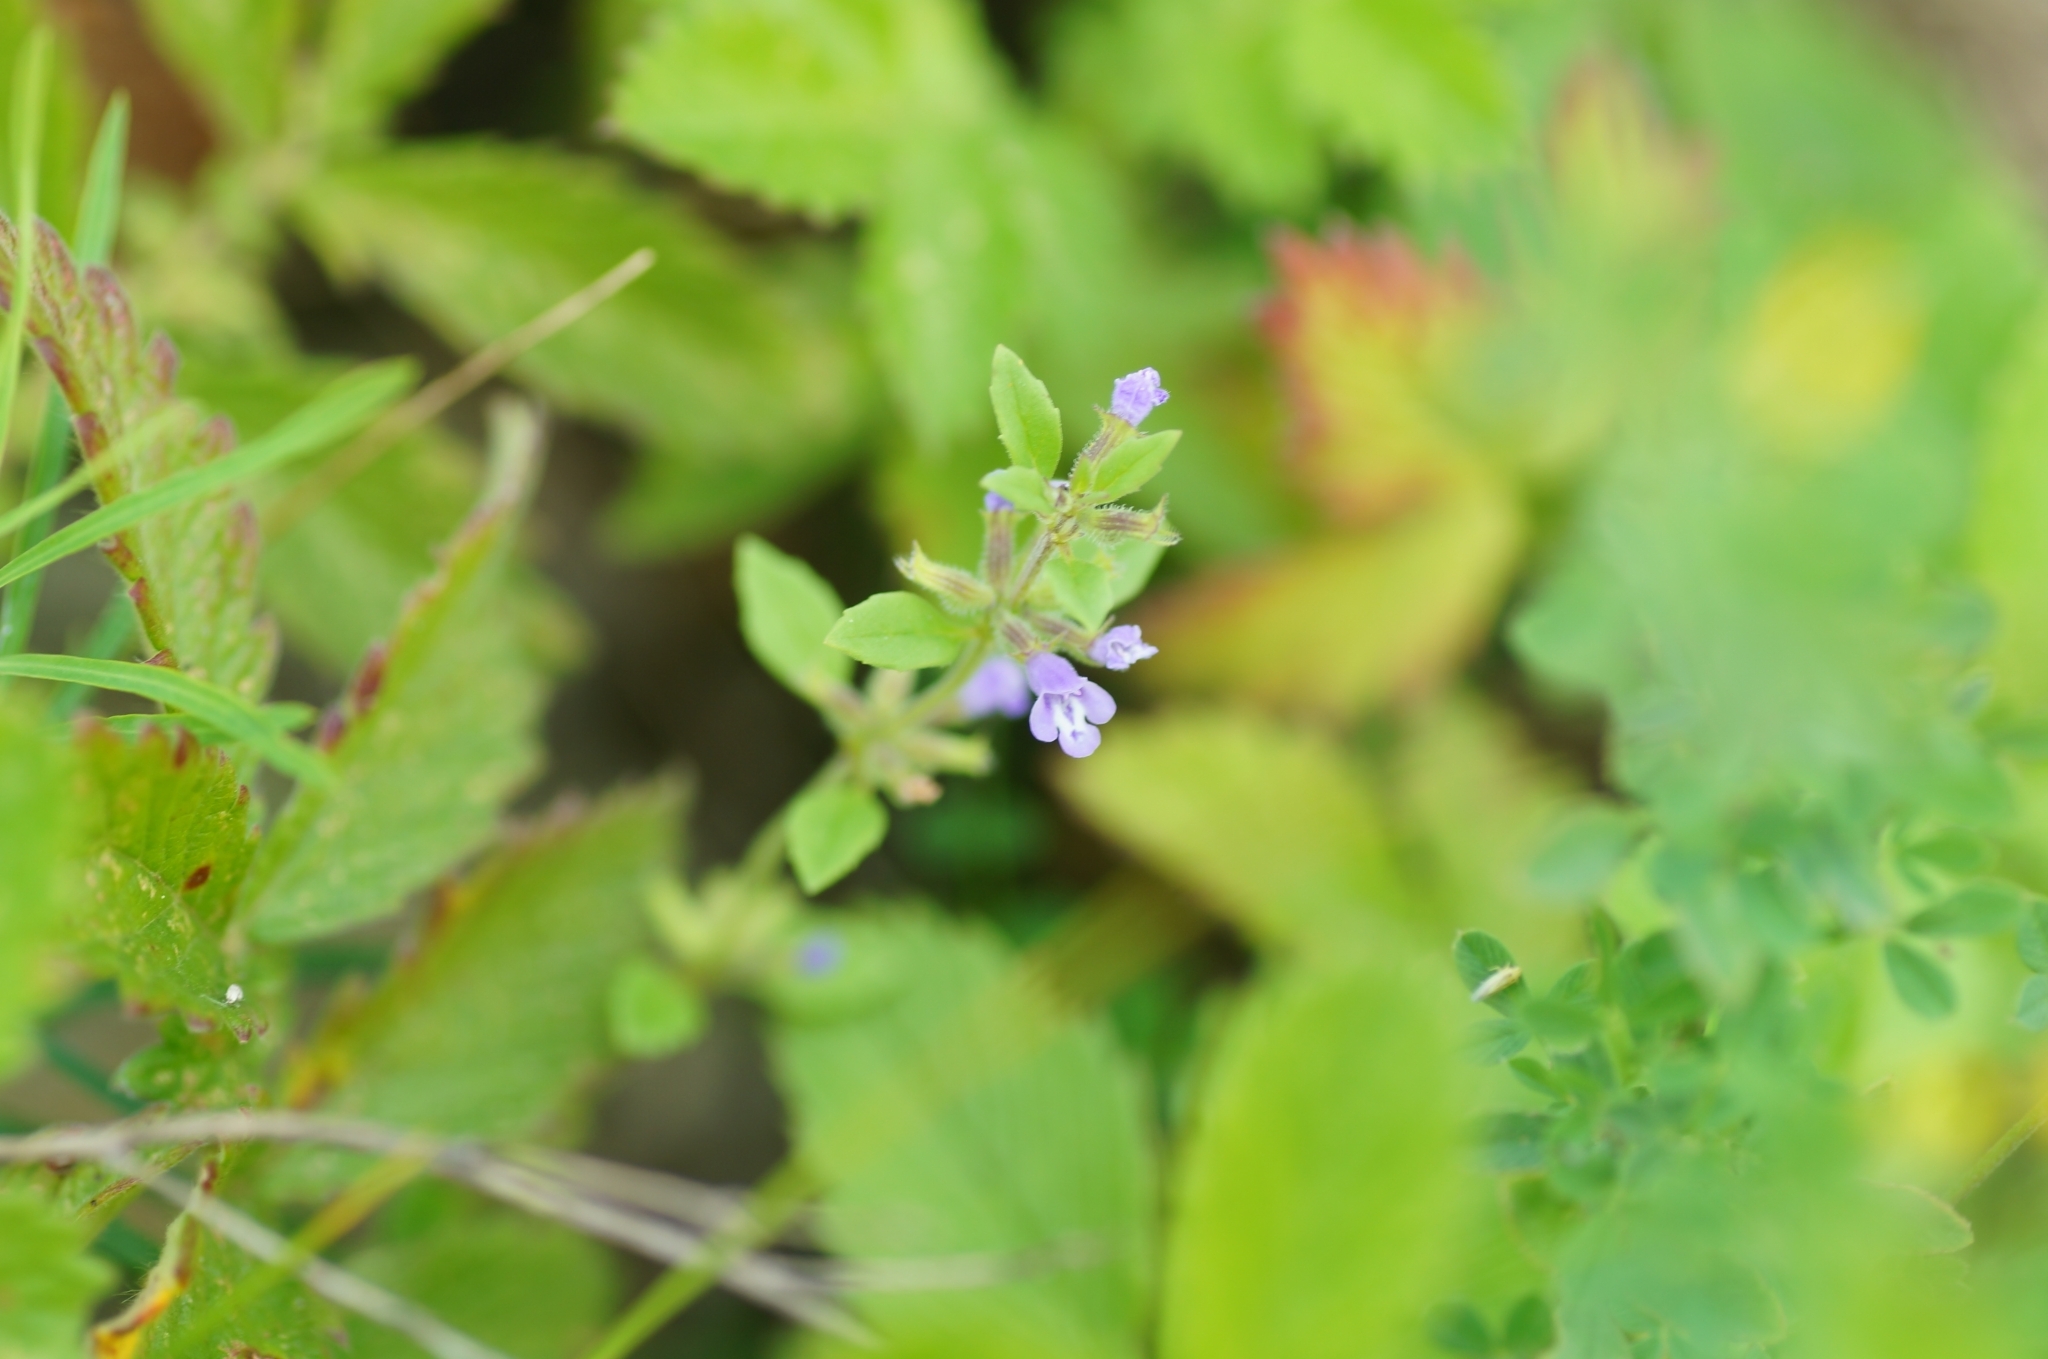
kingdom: Plantae
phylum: Tracheophyta
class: Magnoliopsida
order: Lamiales
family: Lamiaceae
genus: Clinopodium
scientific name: Clinopodium acinos
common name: Basil thyme
